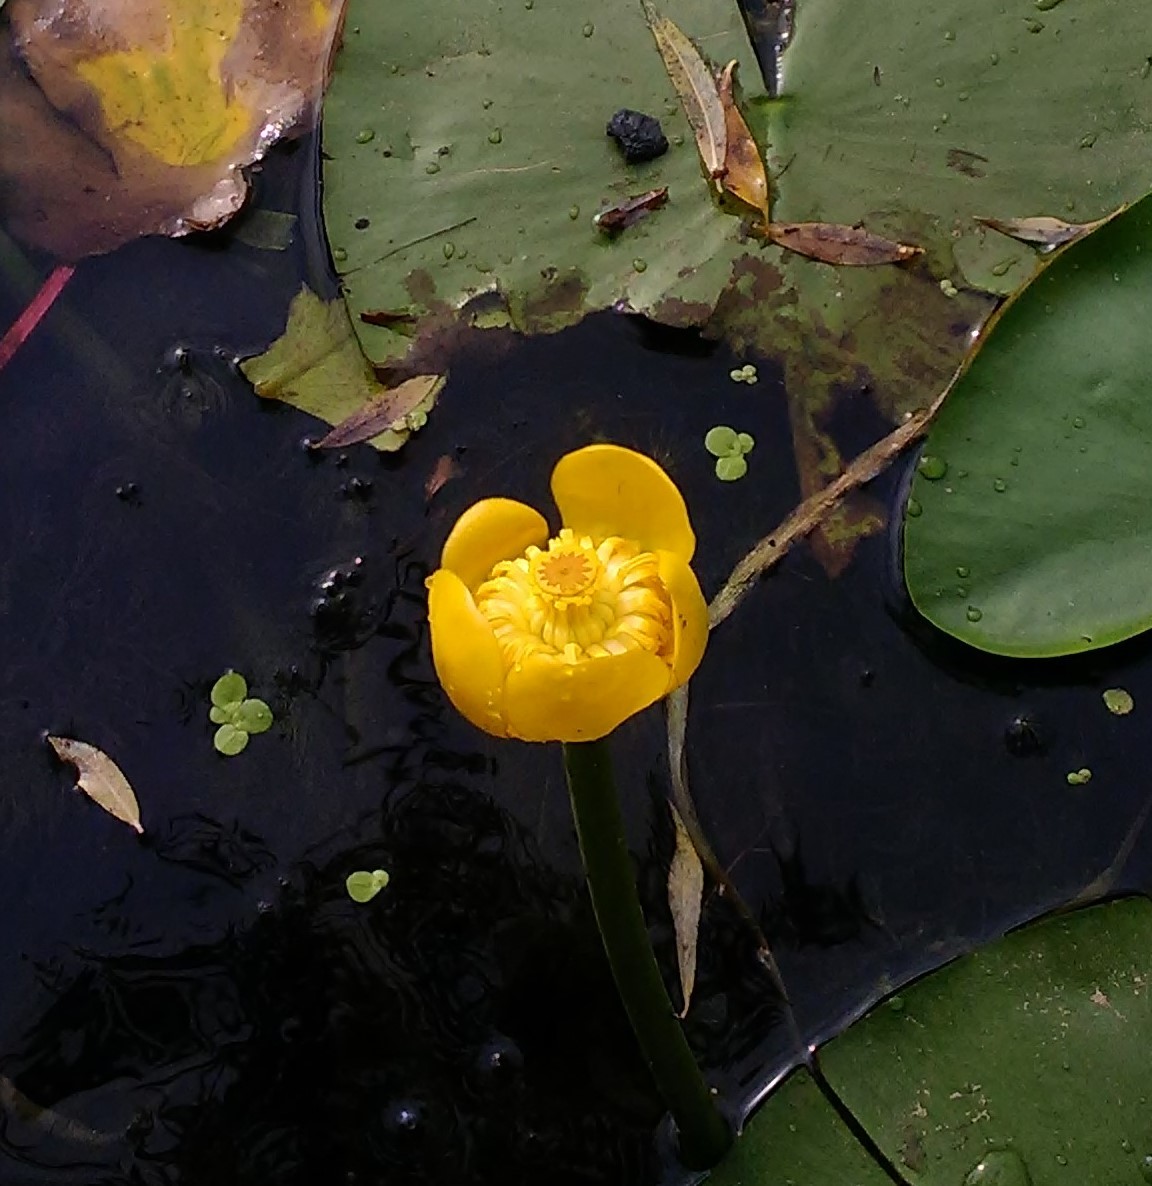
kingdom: Plantae
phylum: Tracheophyta
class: Magnoliopsida
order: Nymphaeales
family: Nymphaeaceae
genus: Nuphar
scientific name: Nuphar lutea
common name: Yellow water-lily
